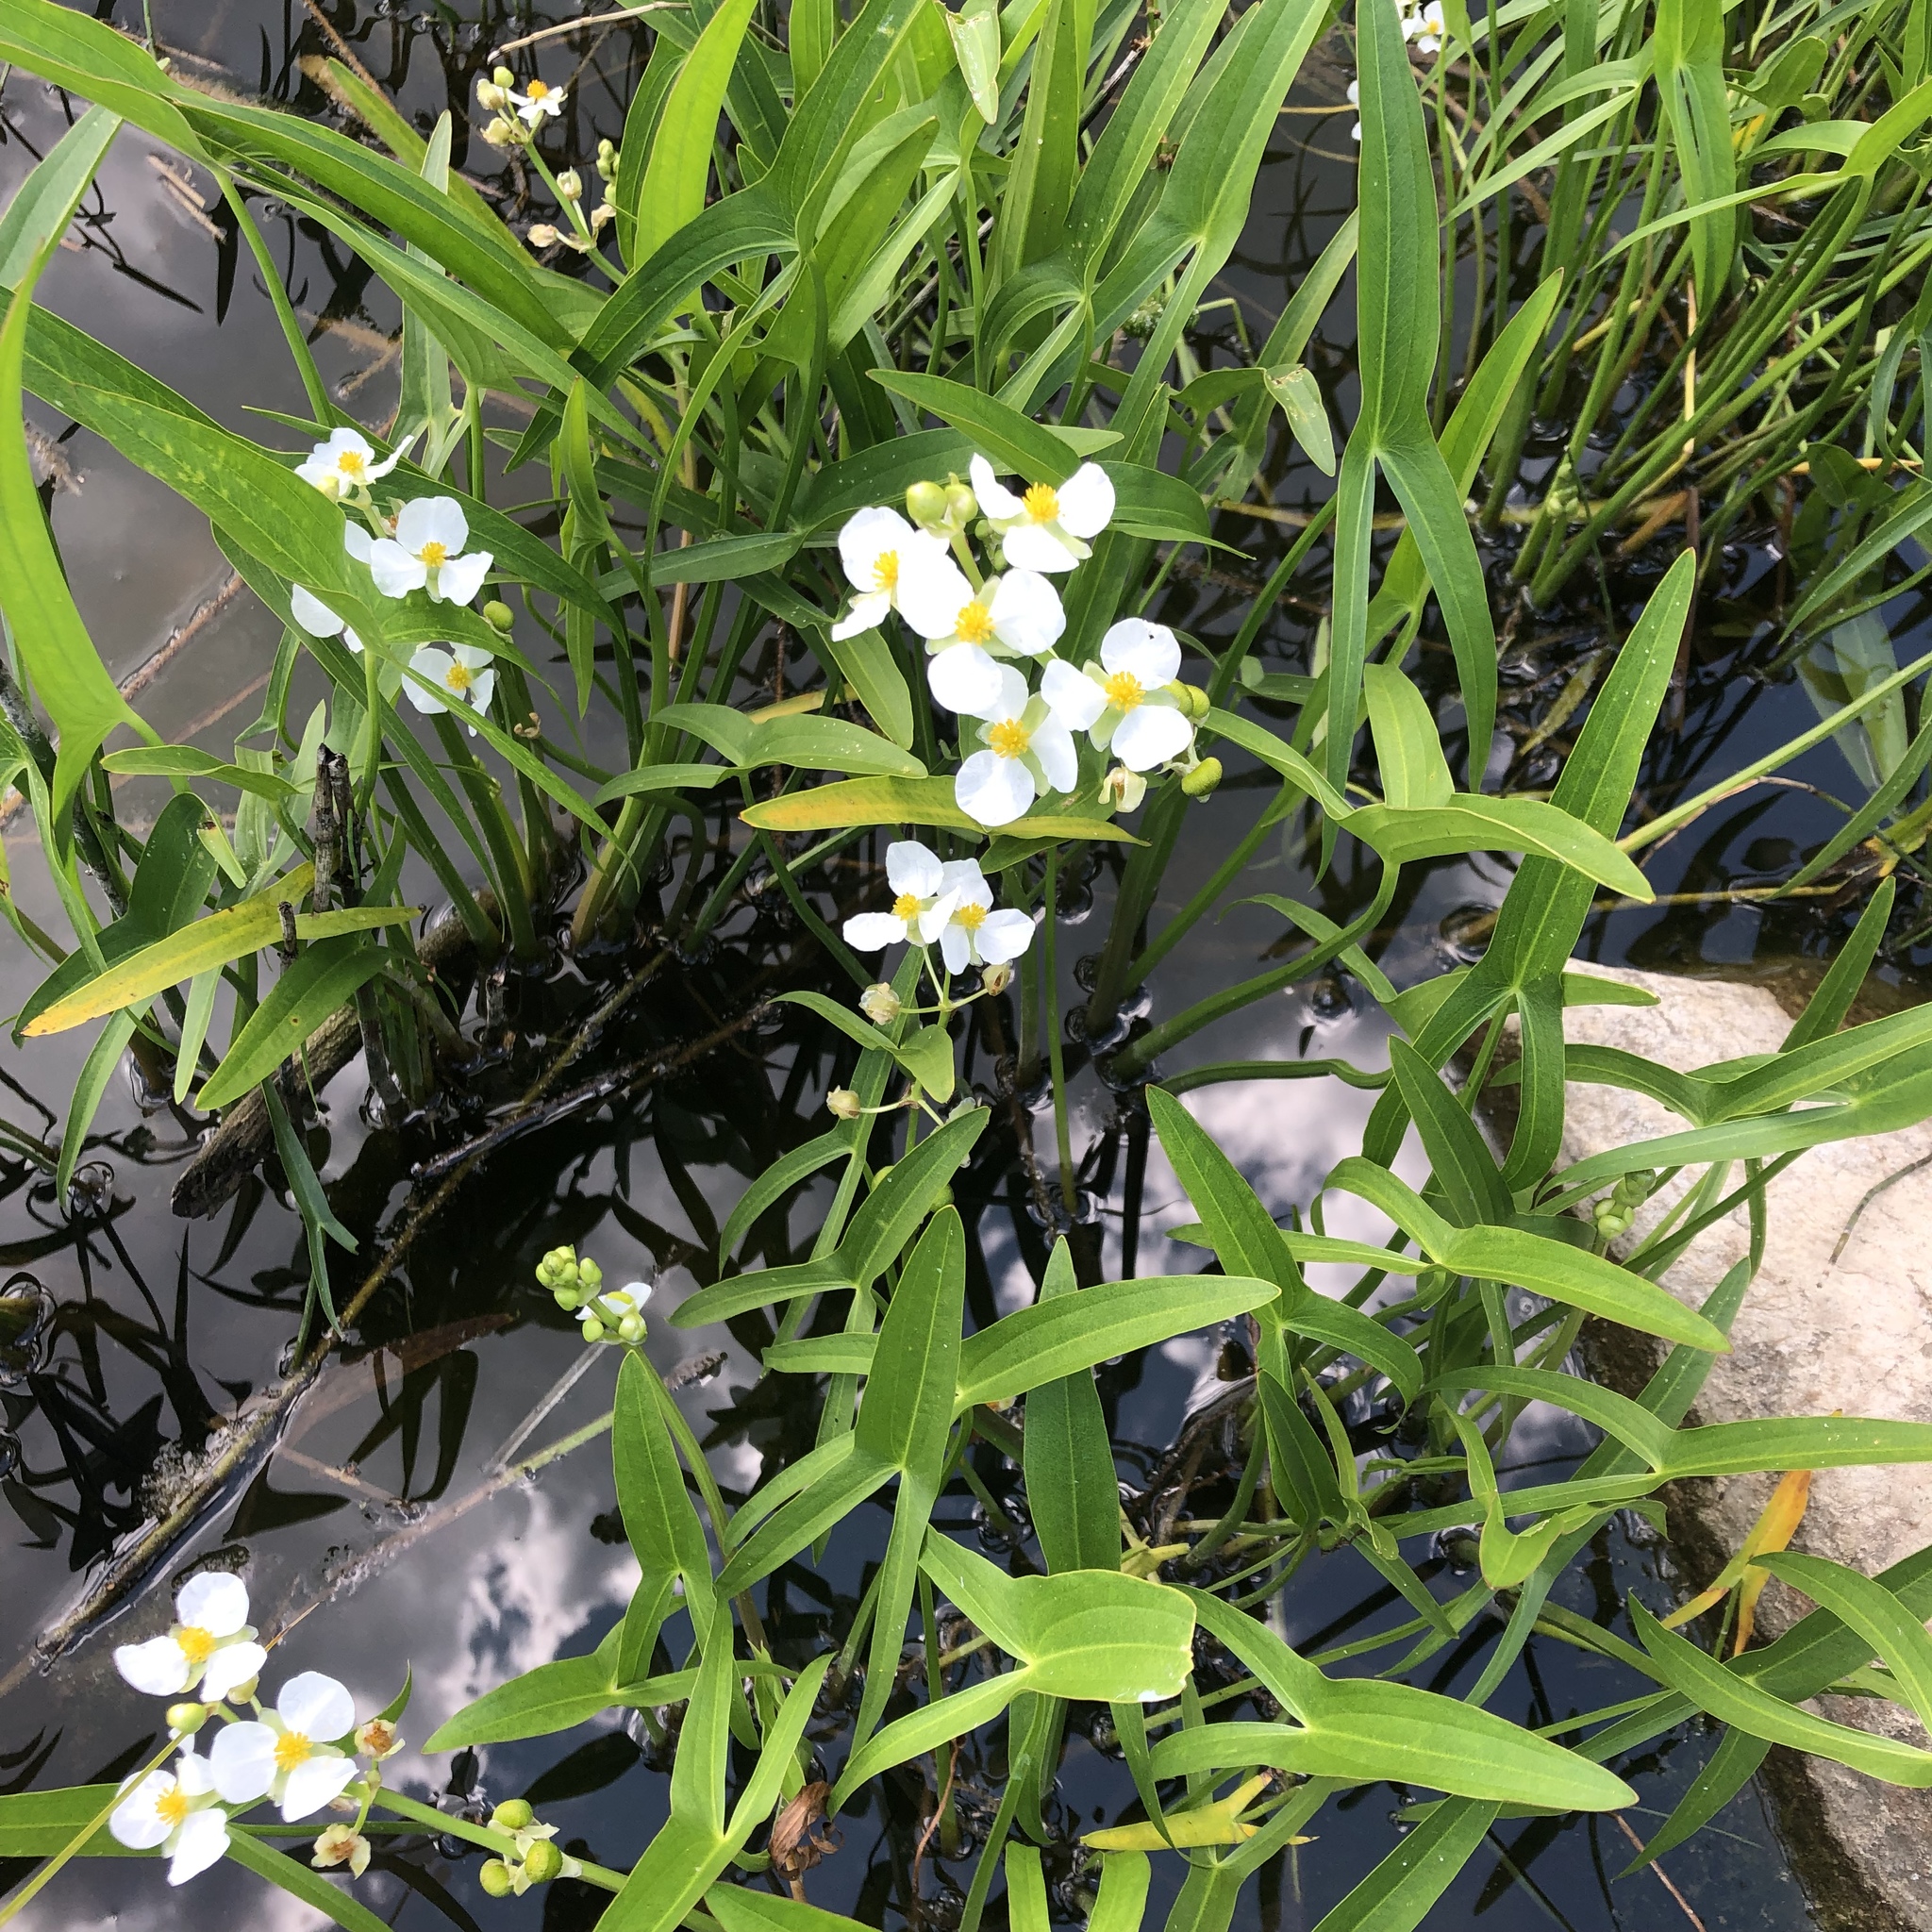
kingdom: Plantae
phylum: Tracheophyta
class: Liliopsida
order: Alismatales
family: Alismataceae
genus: Sagittaria
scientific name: Sagittaria latifolia
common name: Duck-potato
